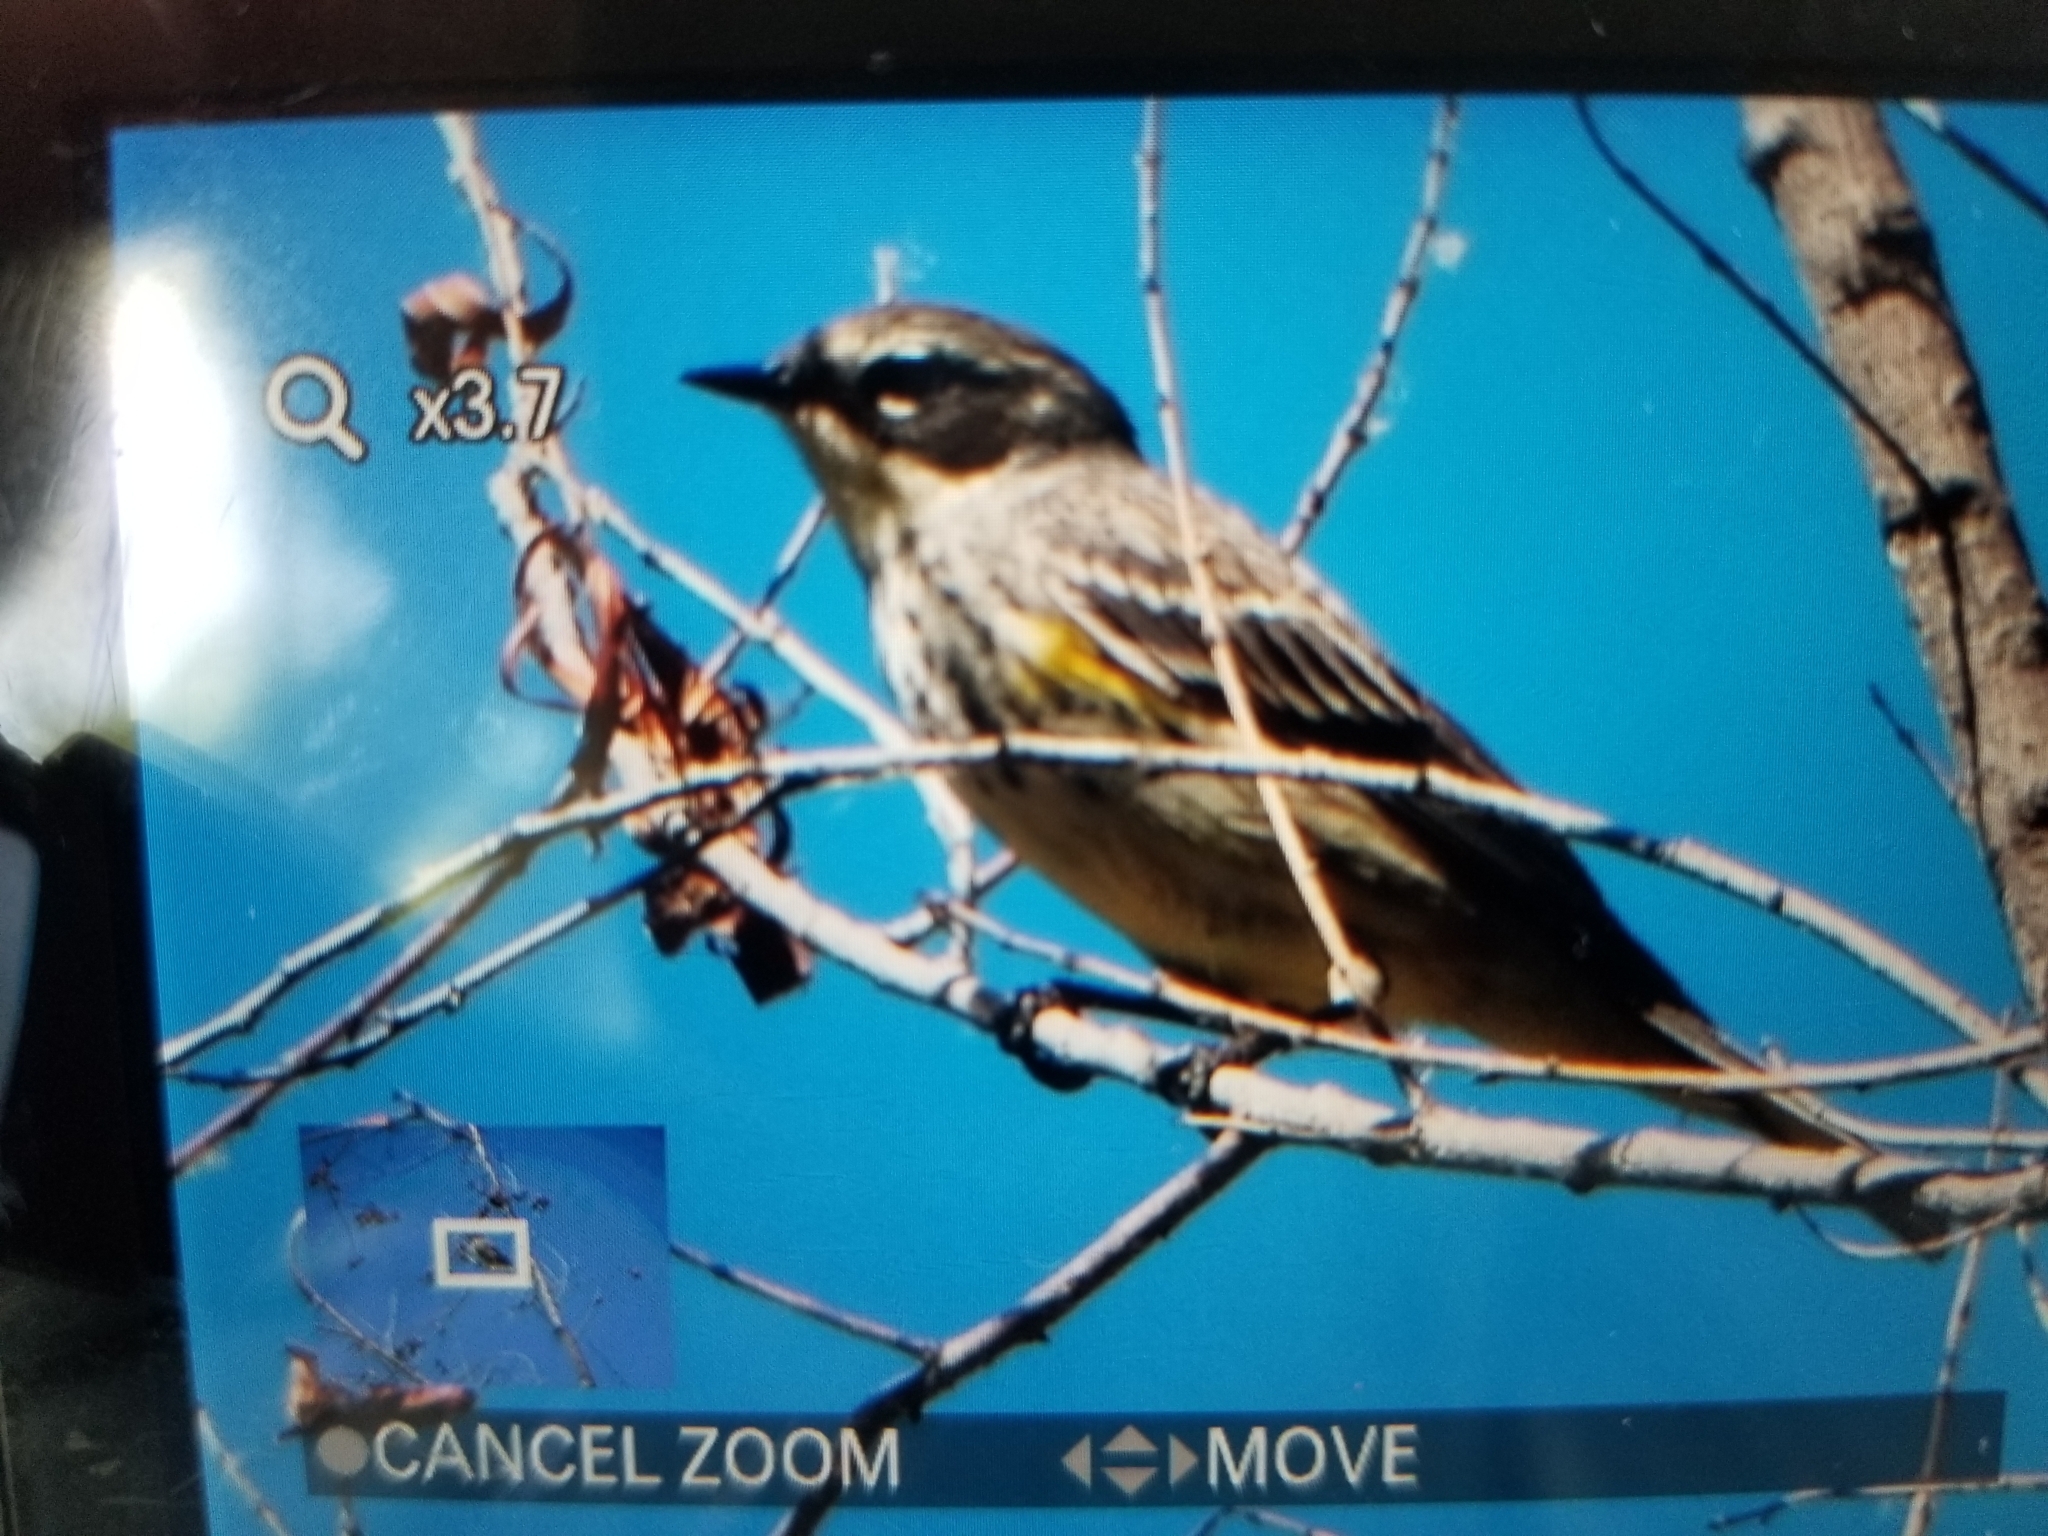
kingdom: Animalia
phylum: Chordata
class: Aves
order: Passeriformes
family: Parulidae
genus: Setophaga
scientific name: Setophaga coronata
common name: Myrtle warbler
